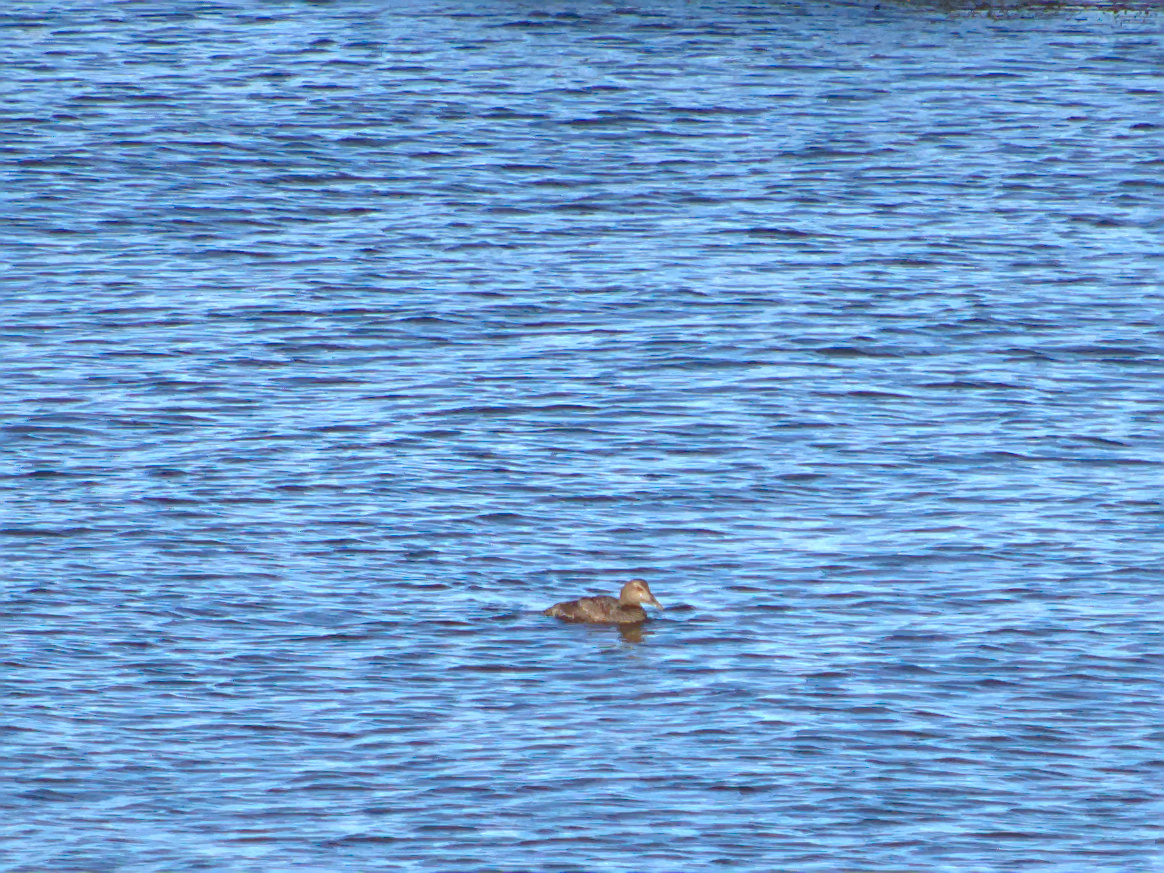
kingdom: Animalia
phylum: Chordata
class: Aves
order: Anseriformes
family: Anatidae
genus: Somateria
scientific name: Somateria mollissima
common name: Common eider
